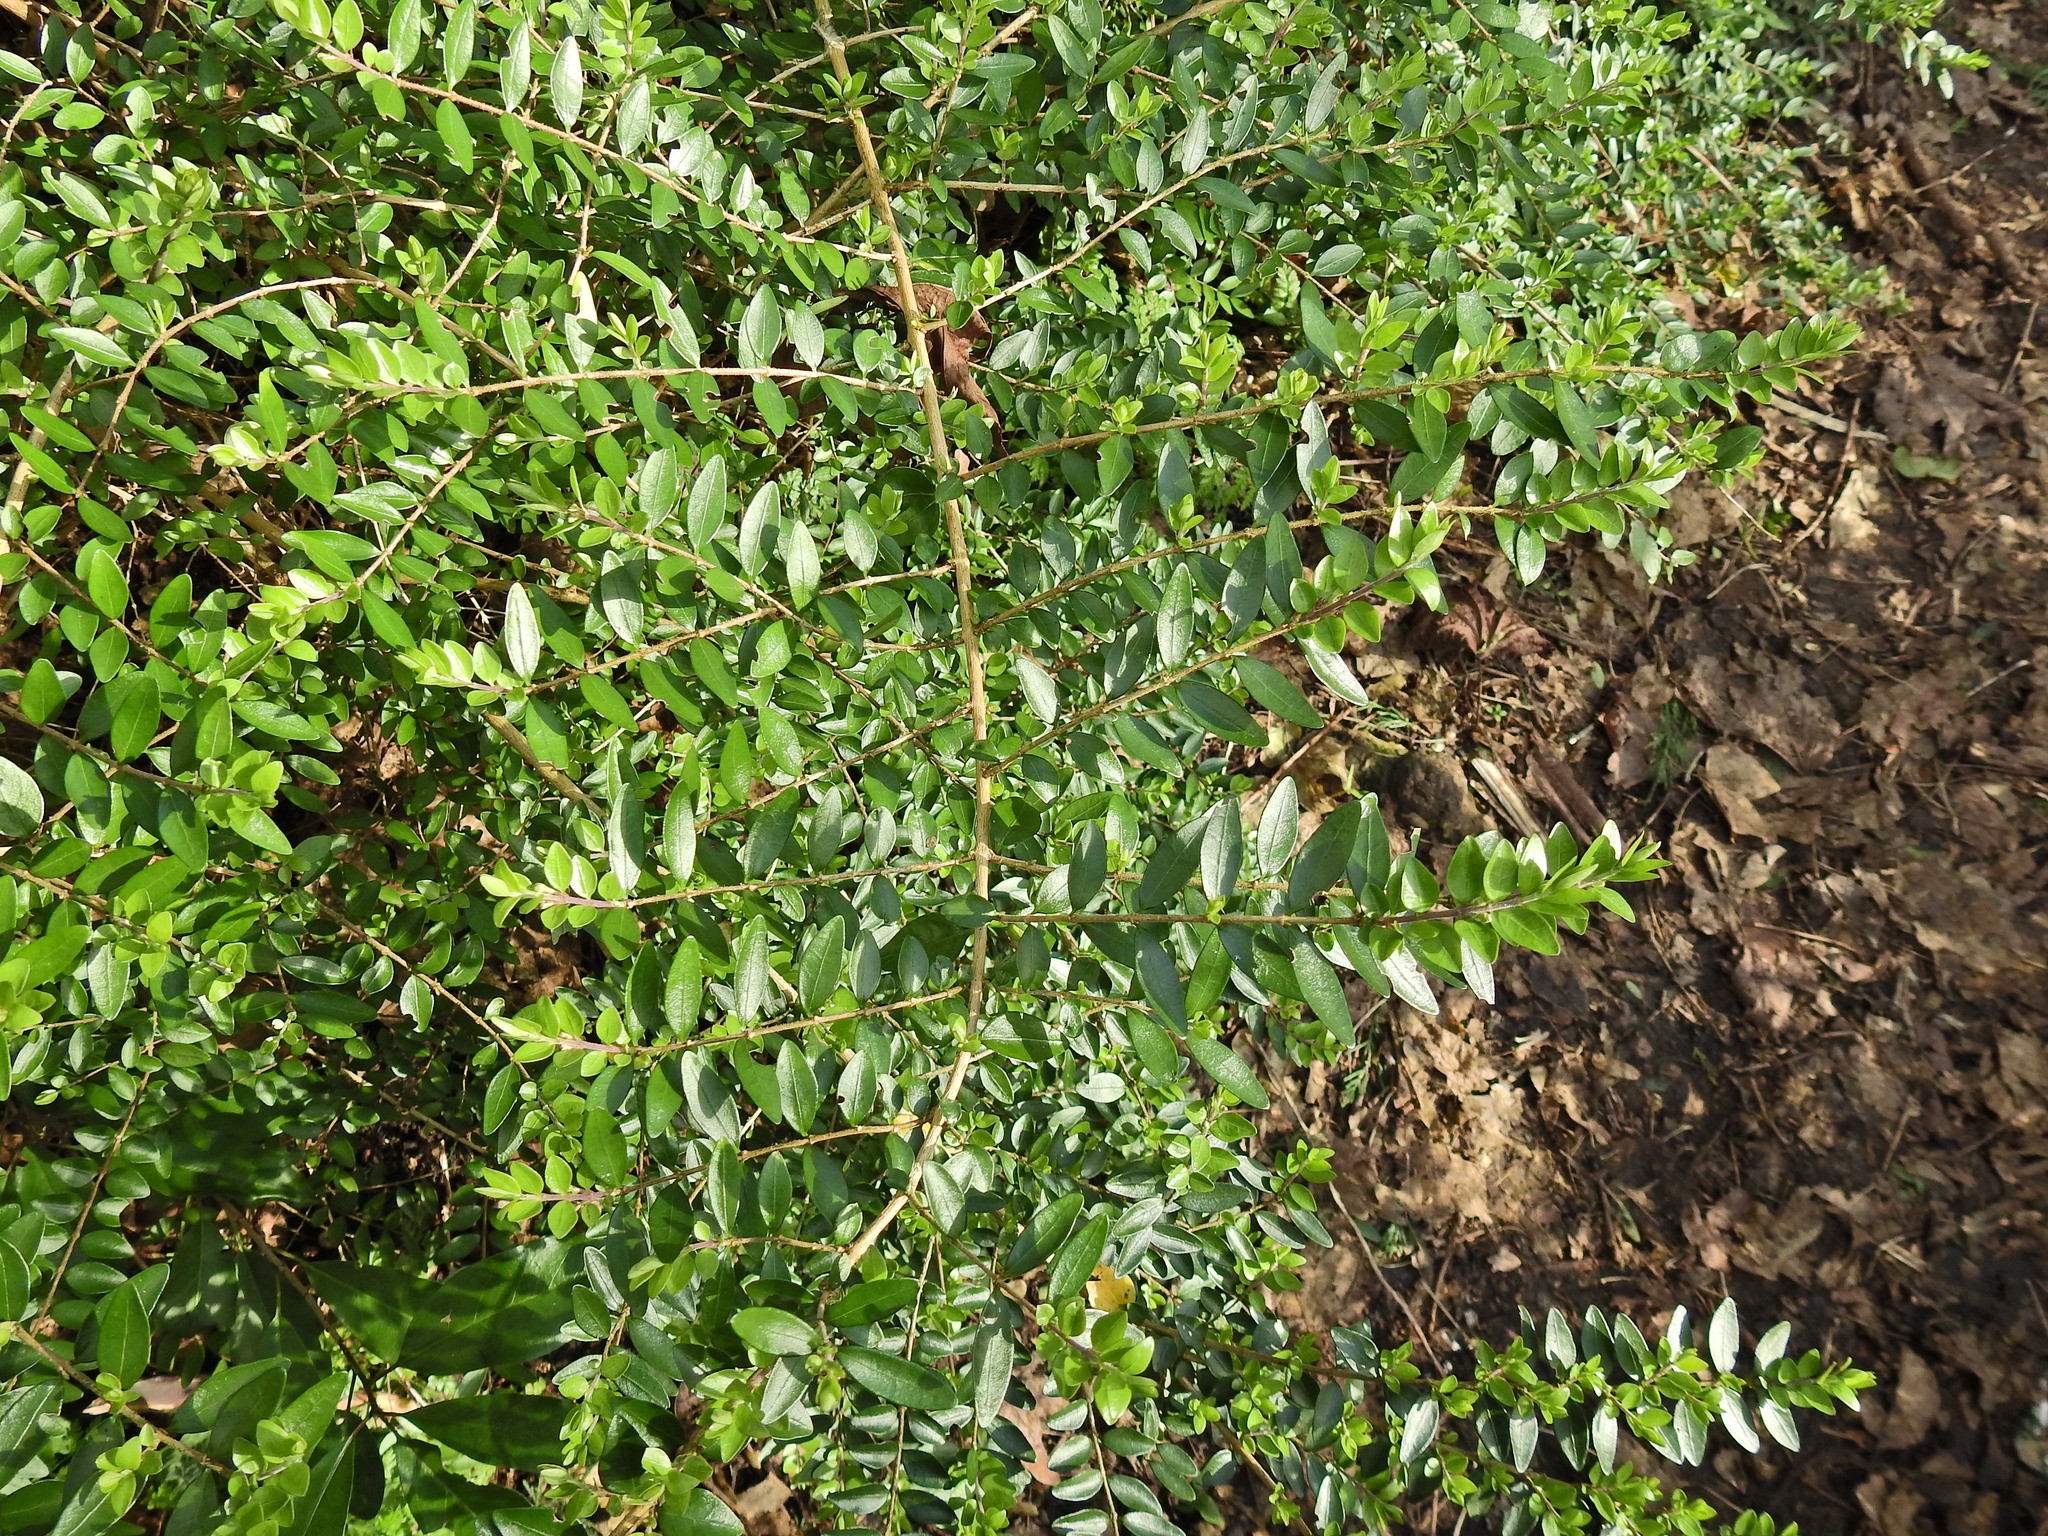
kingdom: Plantae
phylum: Tracheophyta
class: Magnoliopsida
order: Dipsacales
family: Caprifoliaceae
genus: Lonicera
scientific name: Lonicera ligustrina
